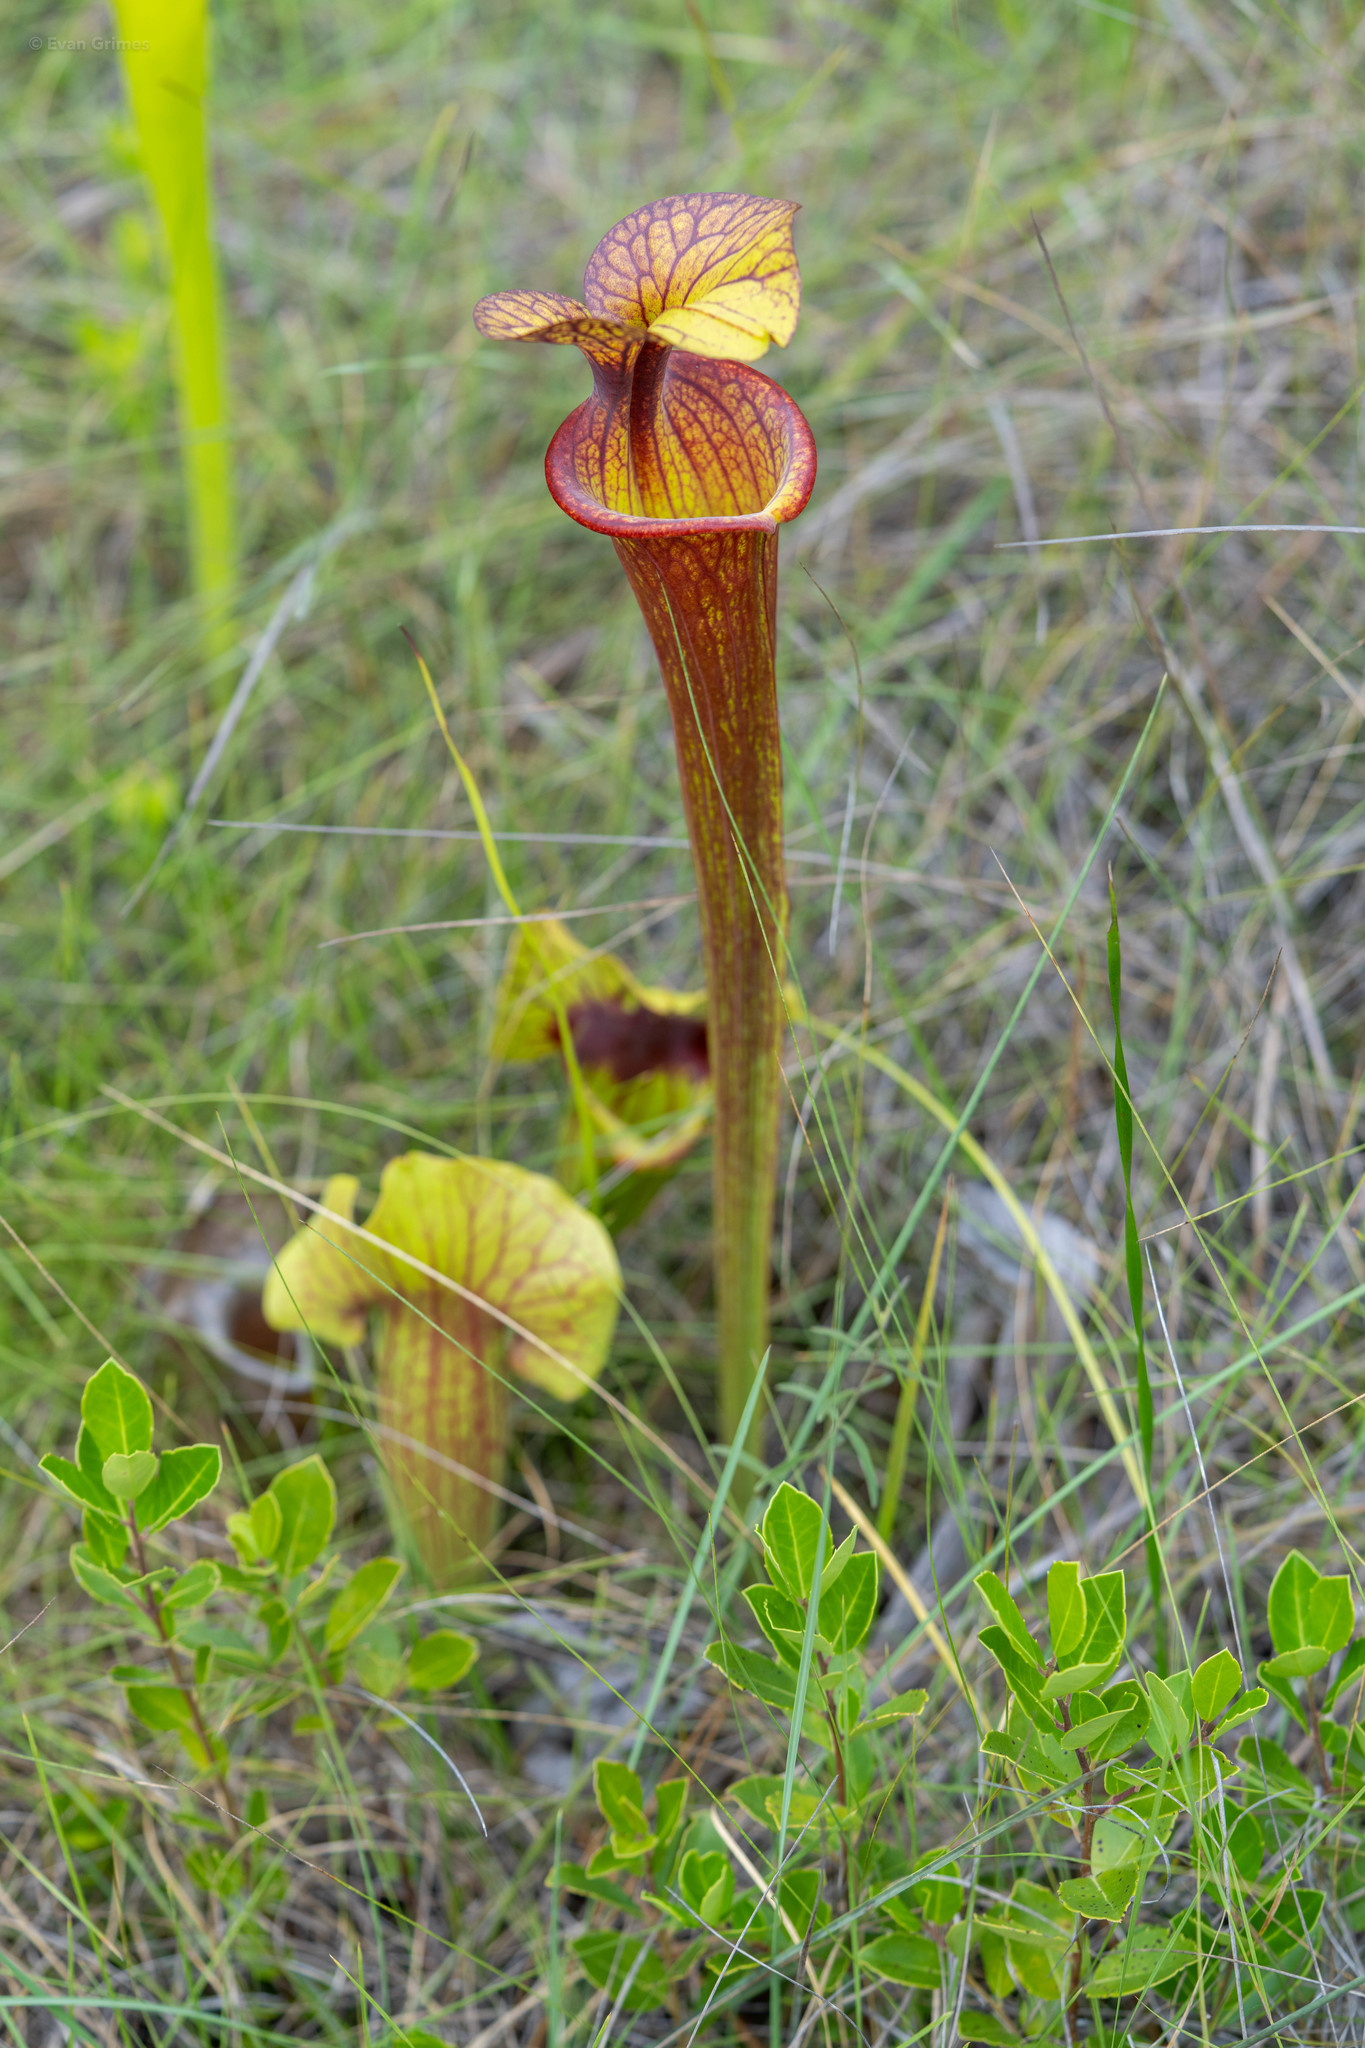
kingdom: Plantae
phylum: Tracheophyta
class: Magnoliopsida
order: Ericales
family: Sarraceniaceae
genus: Sarracenia
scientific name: Sarracenia flava
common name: Trumpets
